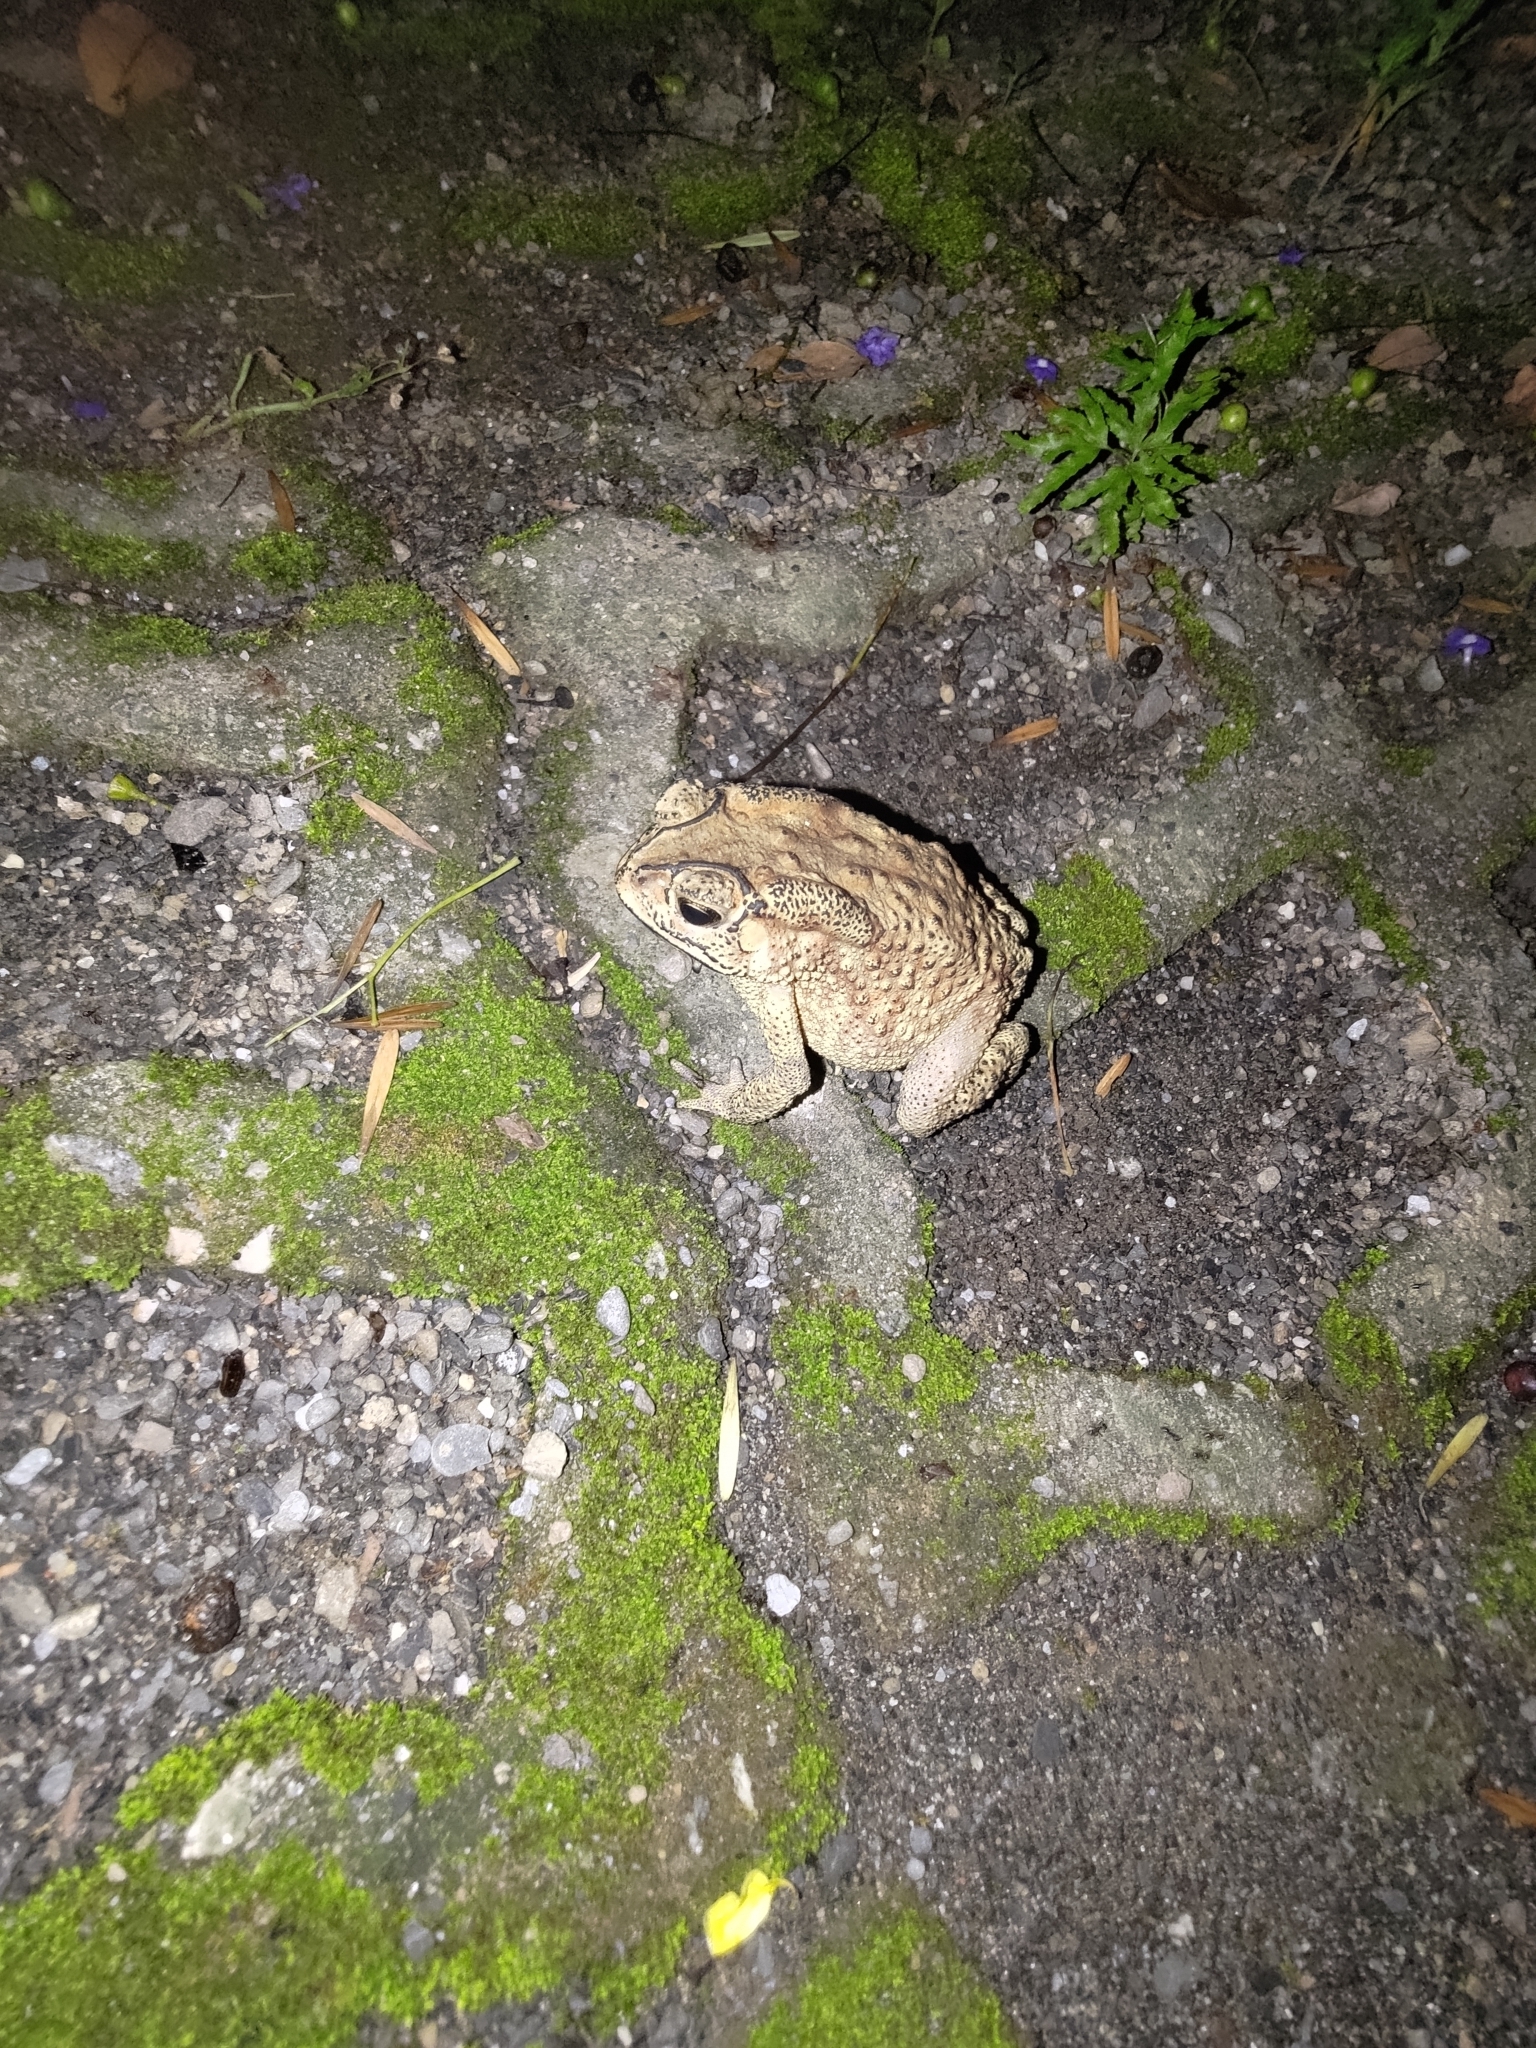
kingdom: Animalia
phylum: Chordata
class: Amphibia
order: Anura
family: Bufonidae
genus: Duttaphrynus
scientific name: Duttaphrynus melanostictus
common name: Common sunda toad
